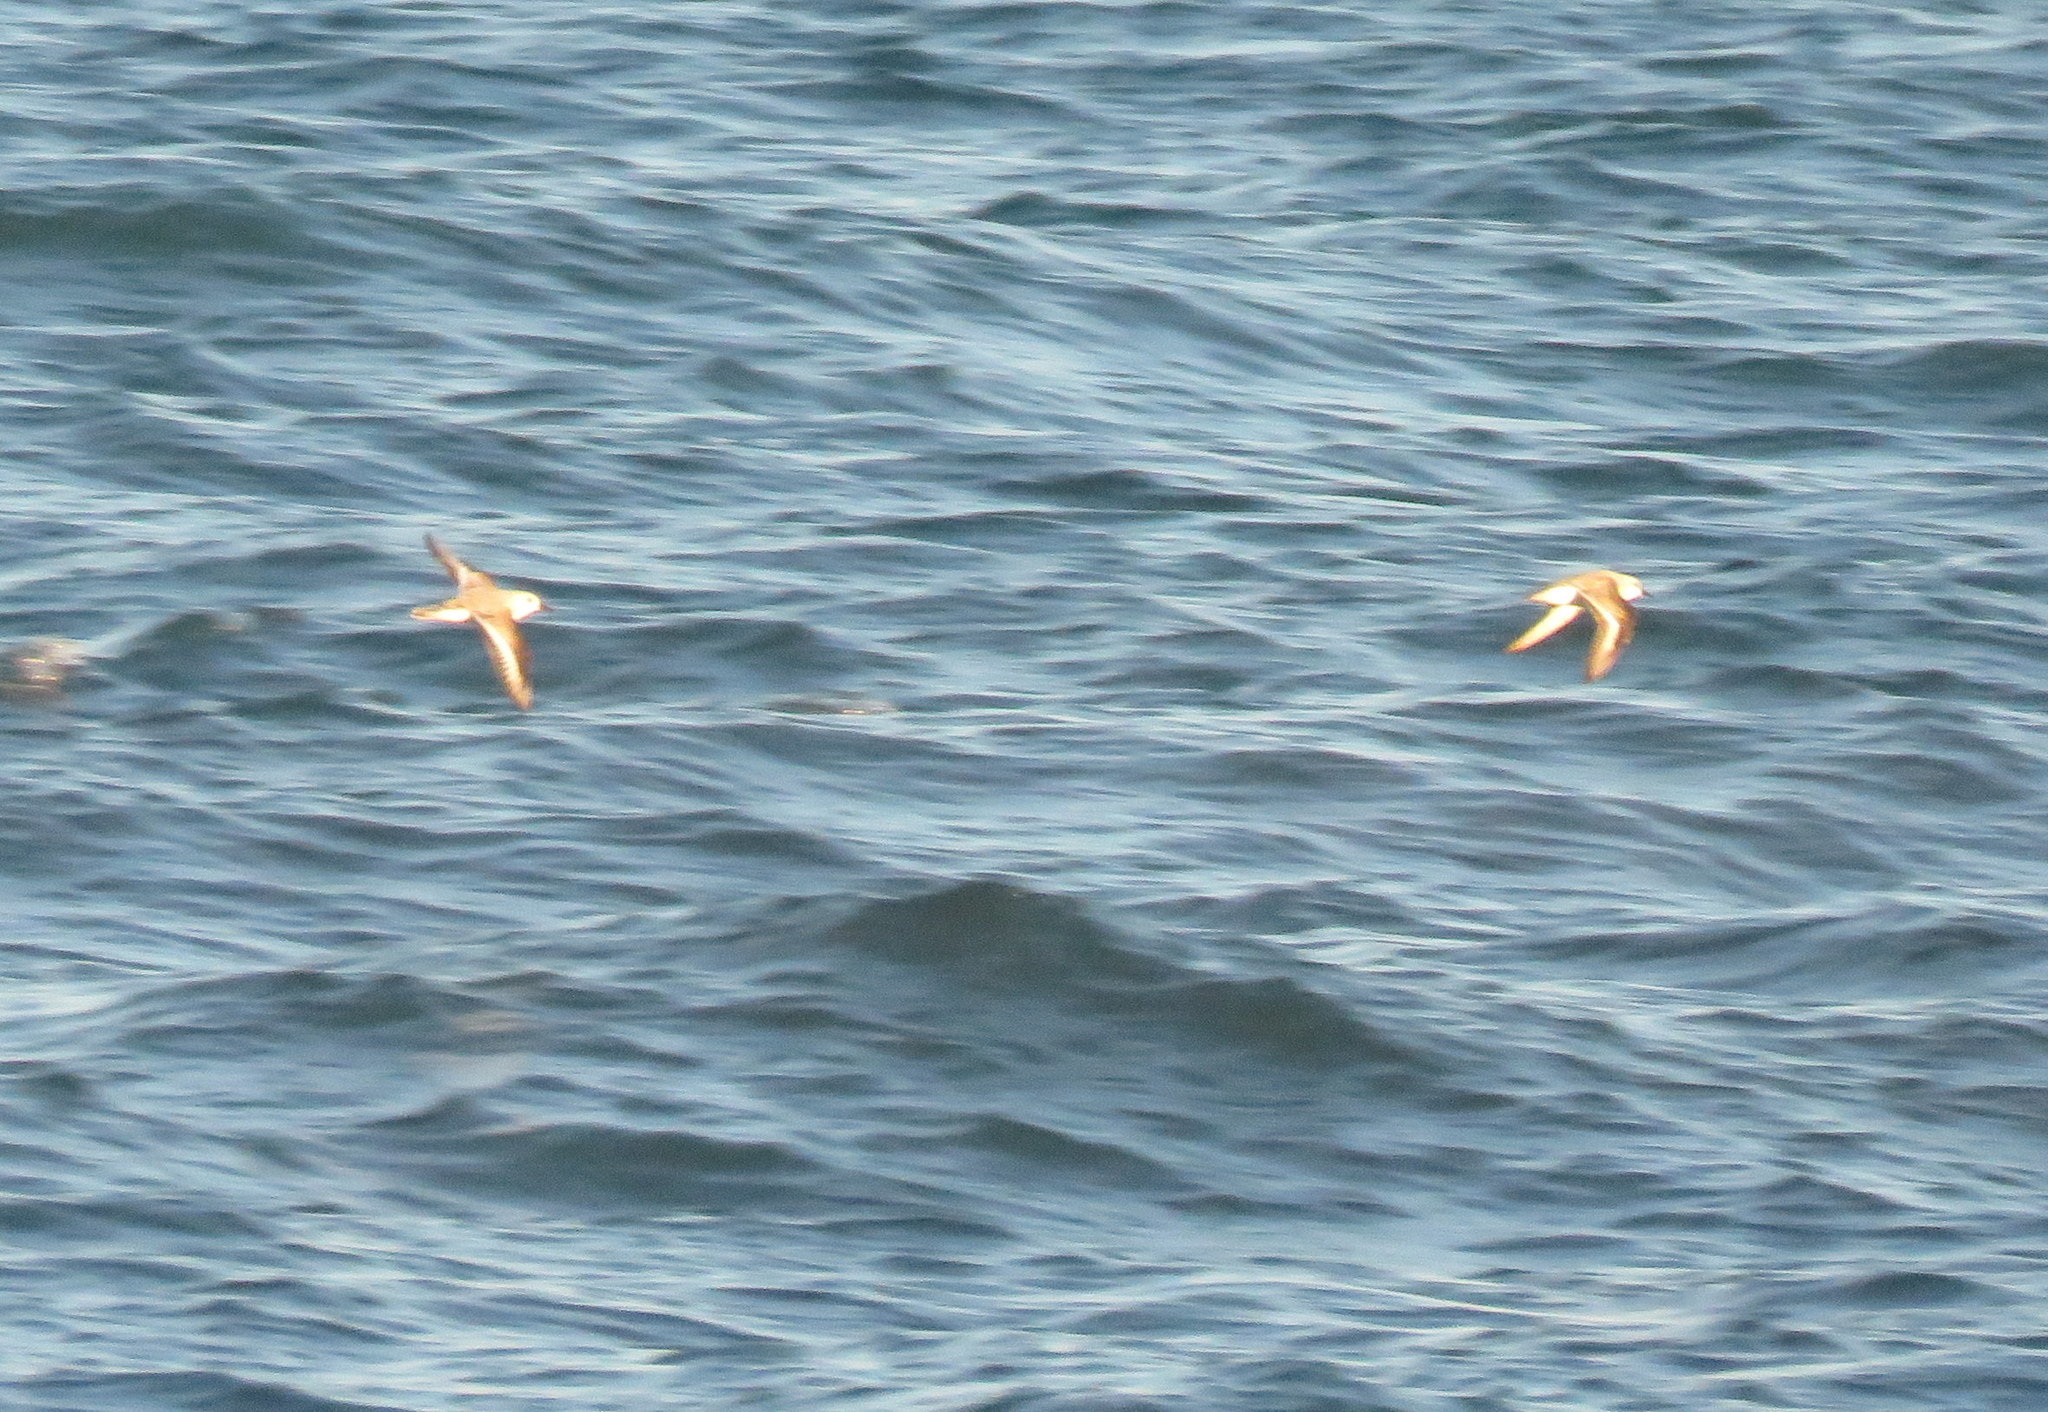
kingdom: Animalia
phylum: Chordata
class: Aves
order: Charadriiformes
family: Scolopacidae
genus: Calidris
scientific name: Calidris alba
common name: Sanderling
